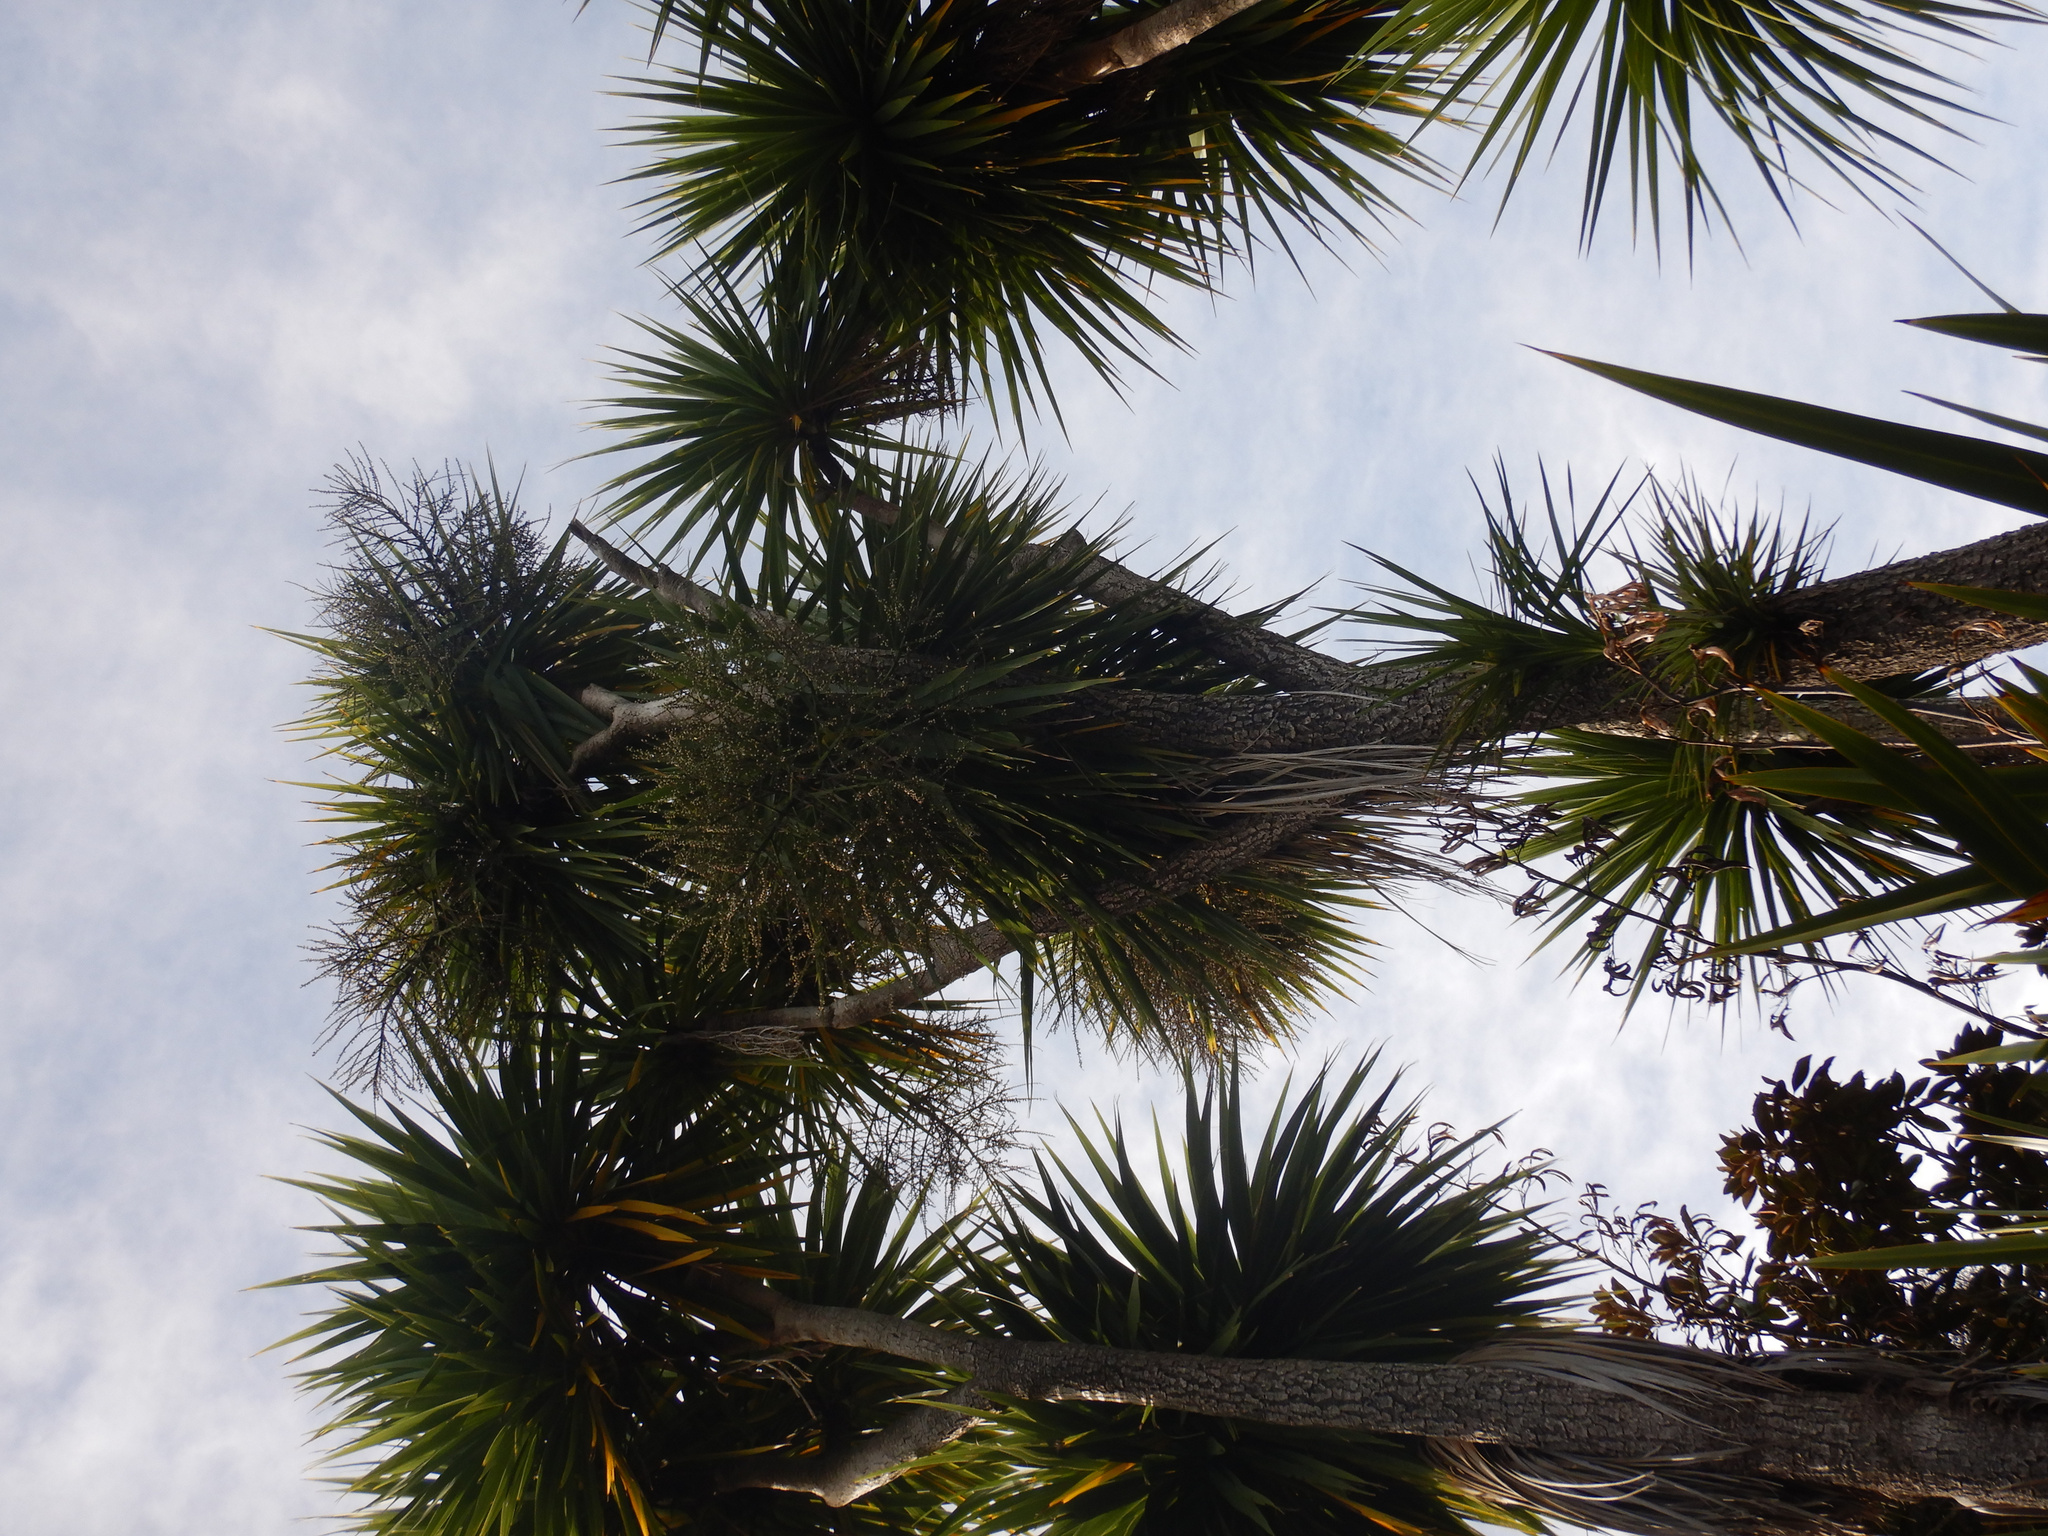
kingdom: Plantae
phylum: Tracheophyta
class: Liliopsida
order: Asparagales
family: Asparagaceae
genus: Cordyline
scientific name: Cordyline australis
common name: Cabbage-palm
